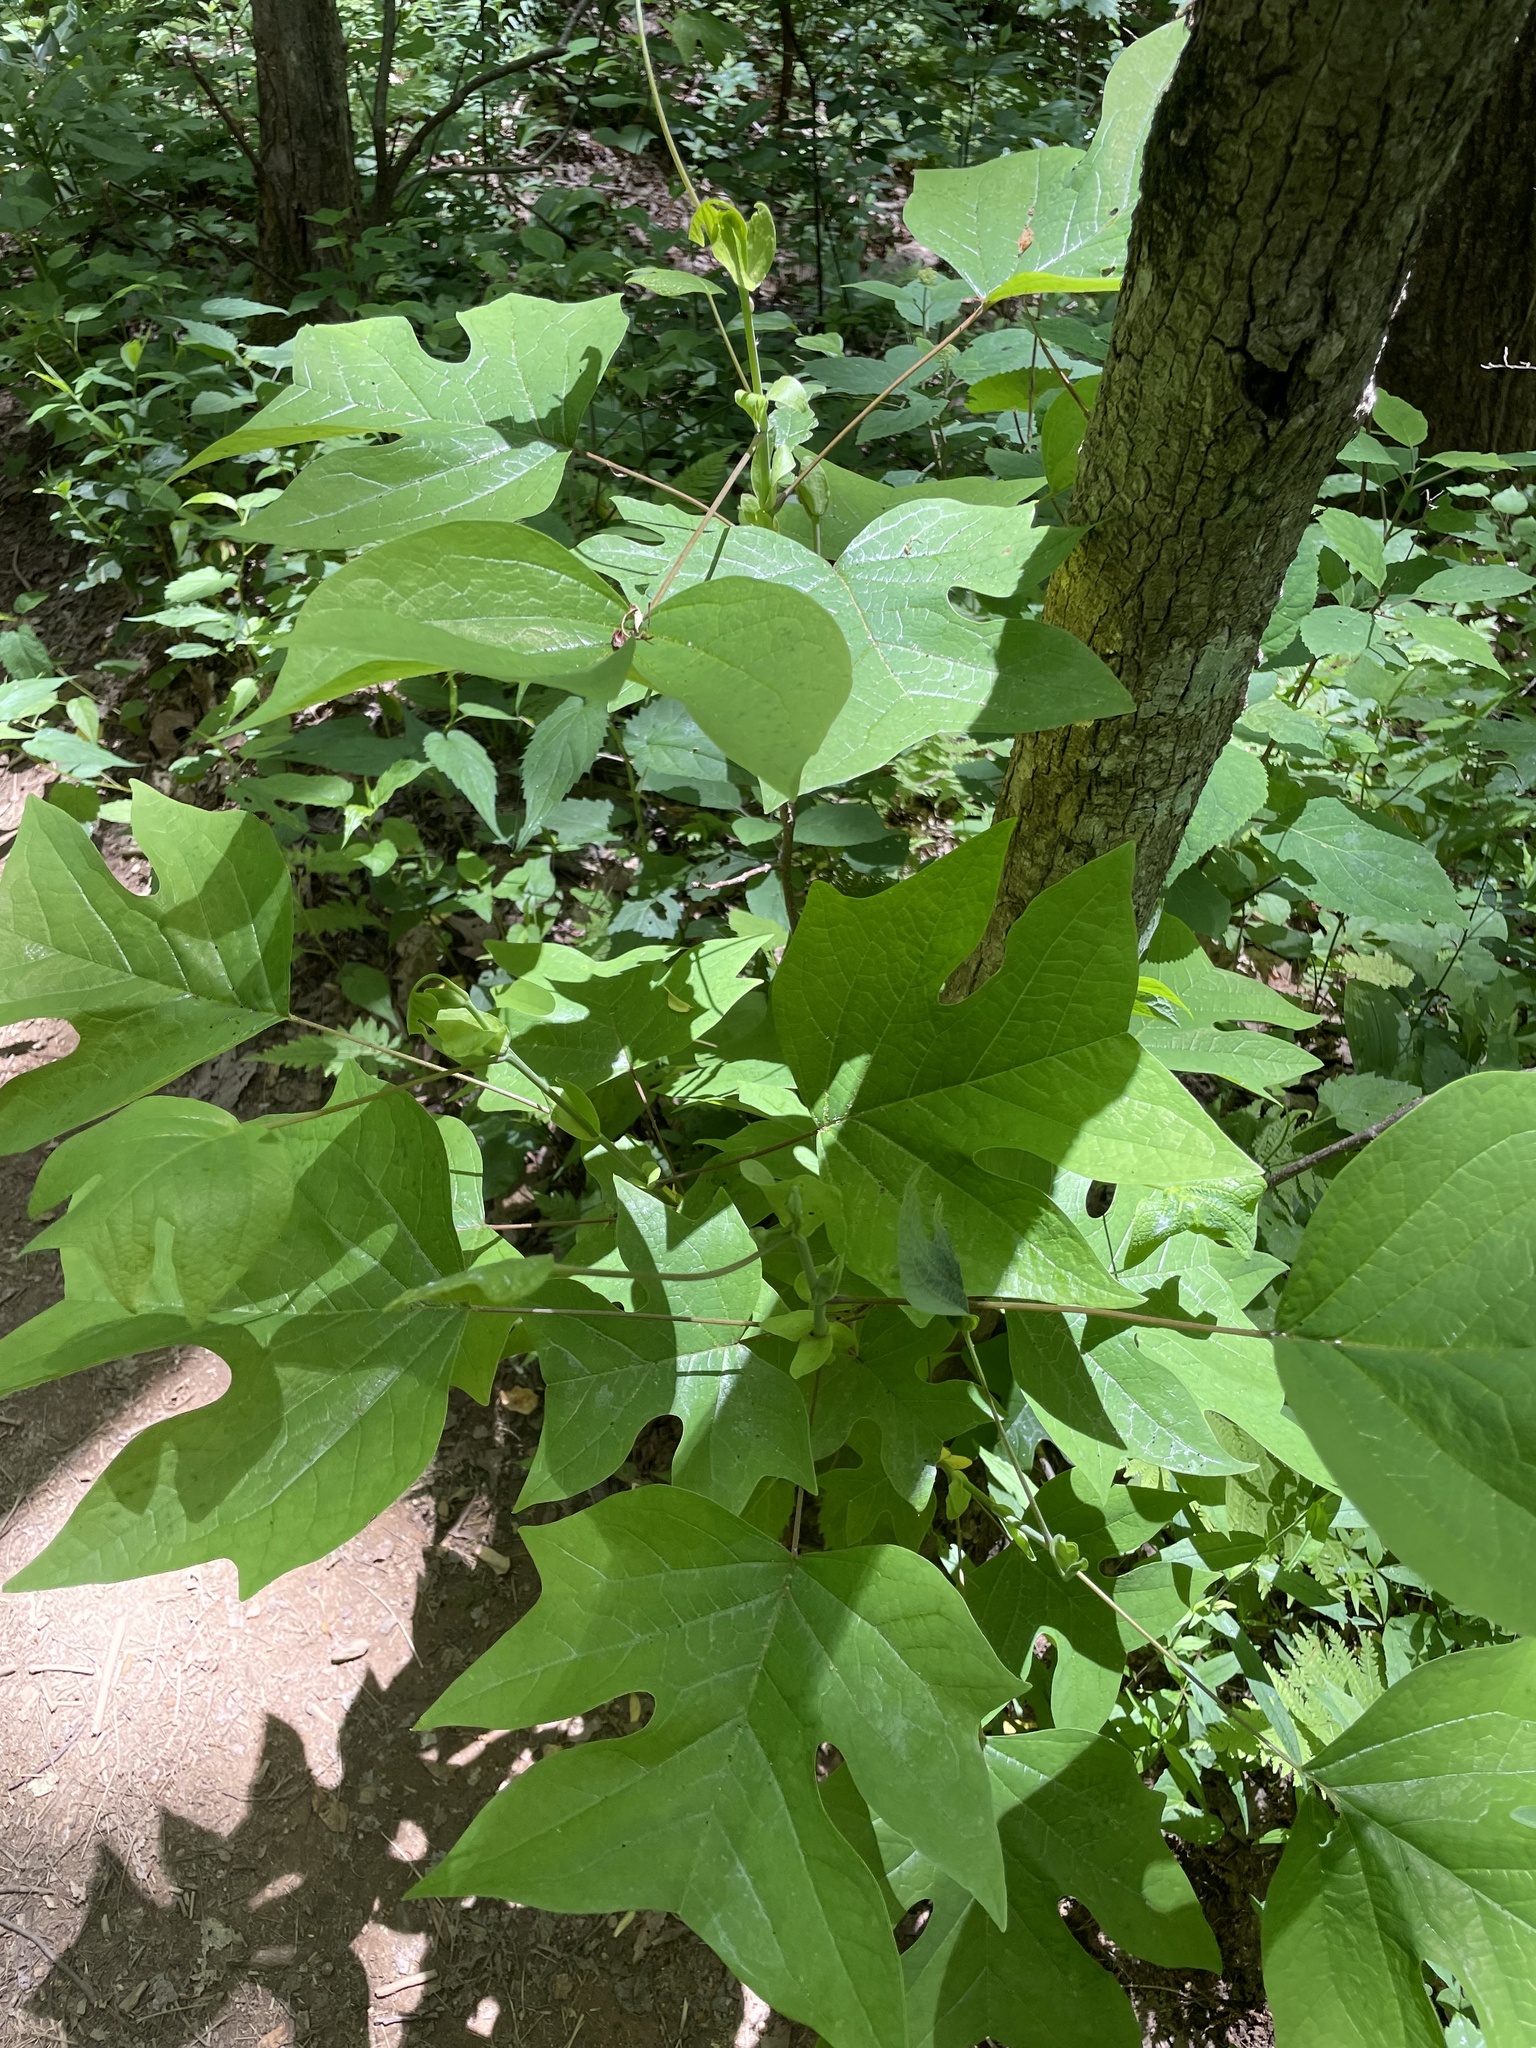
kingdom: Plantae
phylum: Tracheophyta
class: Magnoliopsida
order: Magnoliales
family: Magnoliaceae
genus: Liriodendron
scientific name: Liriodendron tulipifera
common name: Tulip tree
